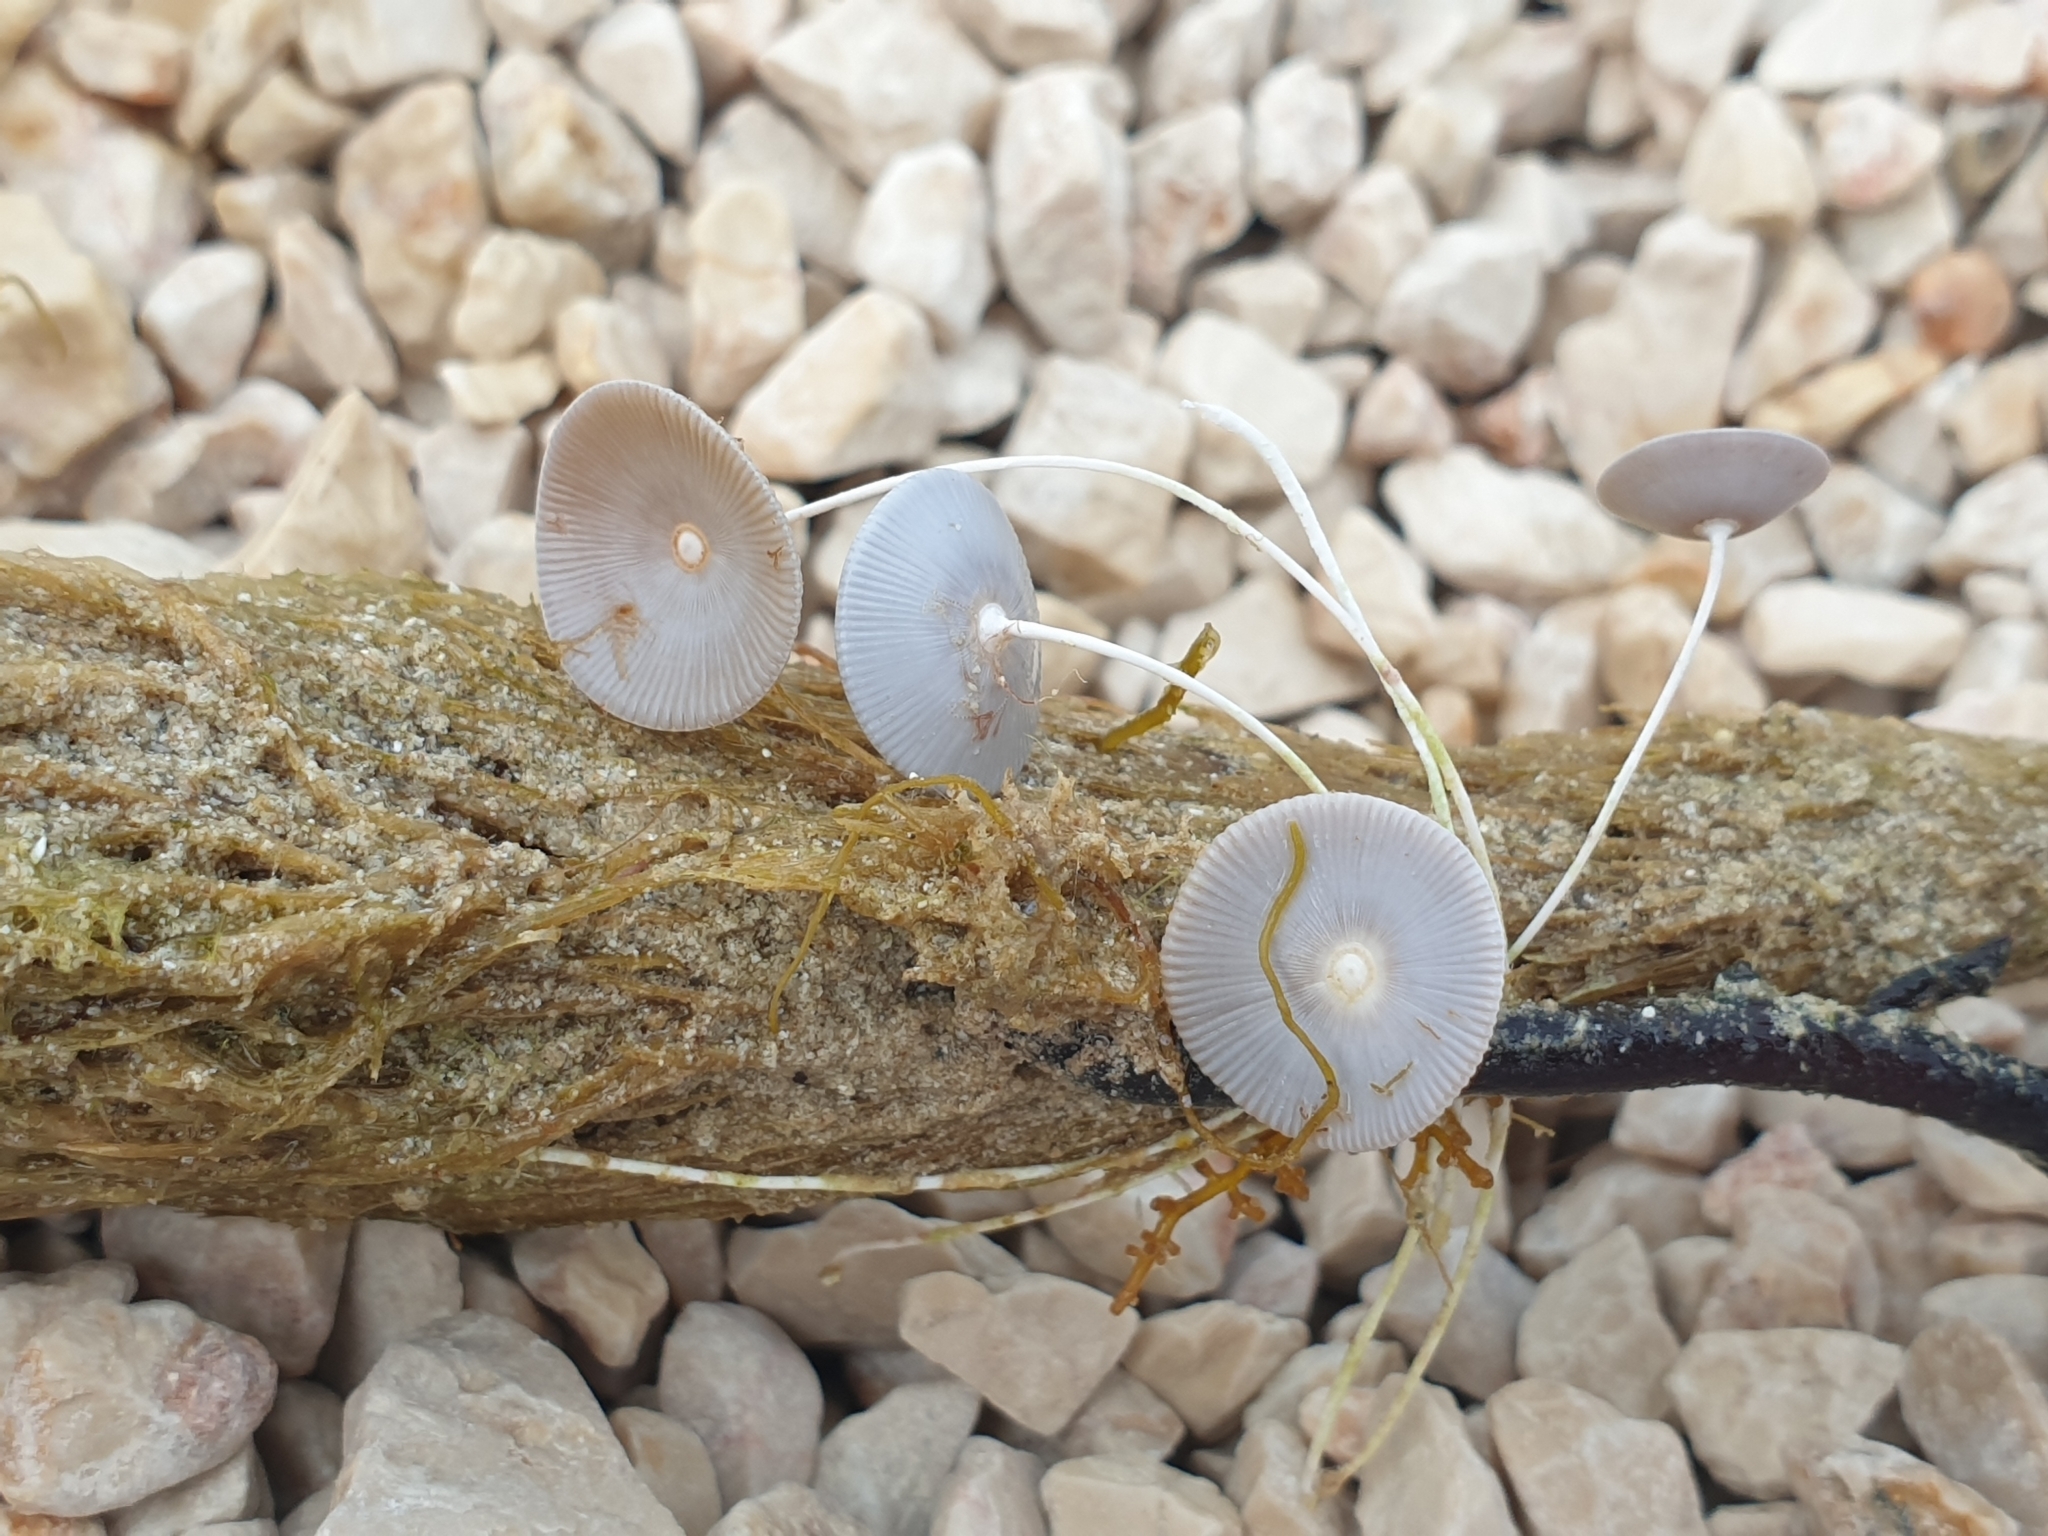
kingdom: Plantae
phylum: Chlorophyta
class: Ulvophyceae
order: Dasycladales
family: Polyphysaceae
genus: Acetabularia
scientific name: Acetabularia acetabulum
